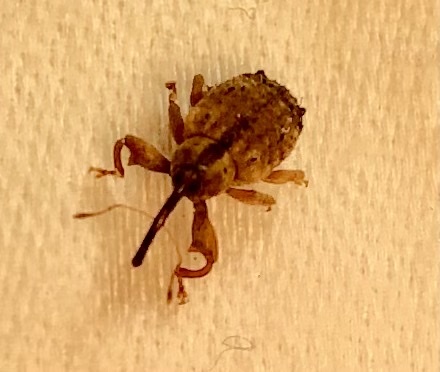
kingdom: Animalia
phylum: Arthropoda
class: Insecta
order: Coleoptera
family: Curculionidae
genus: Ochyromera
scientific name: Ochyromera ligustri
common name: Weevil
